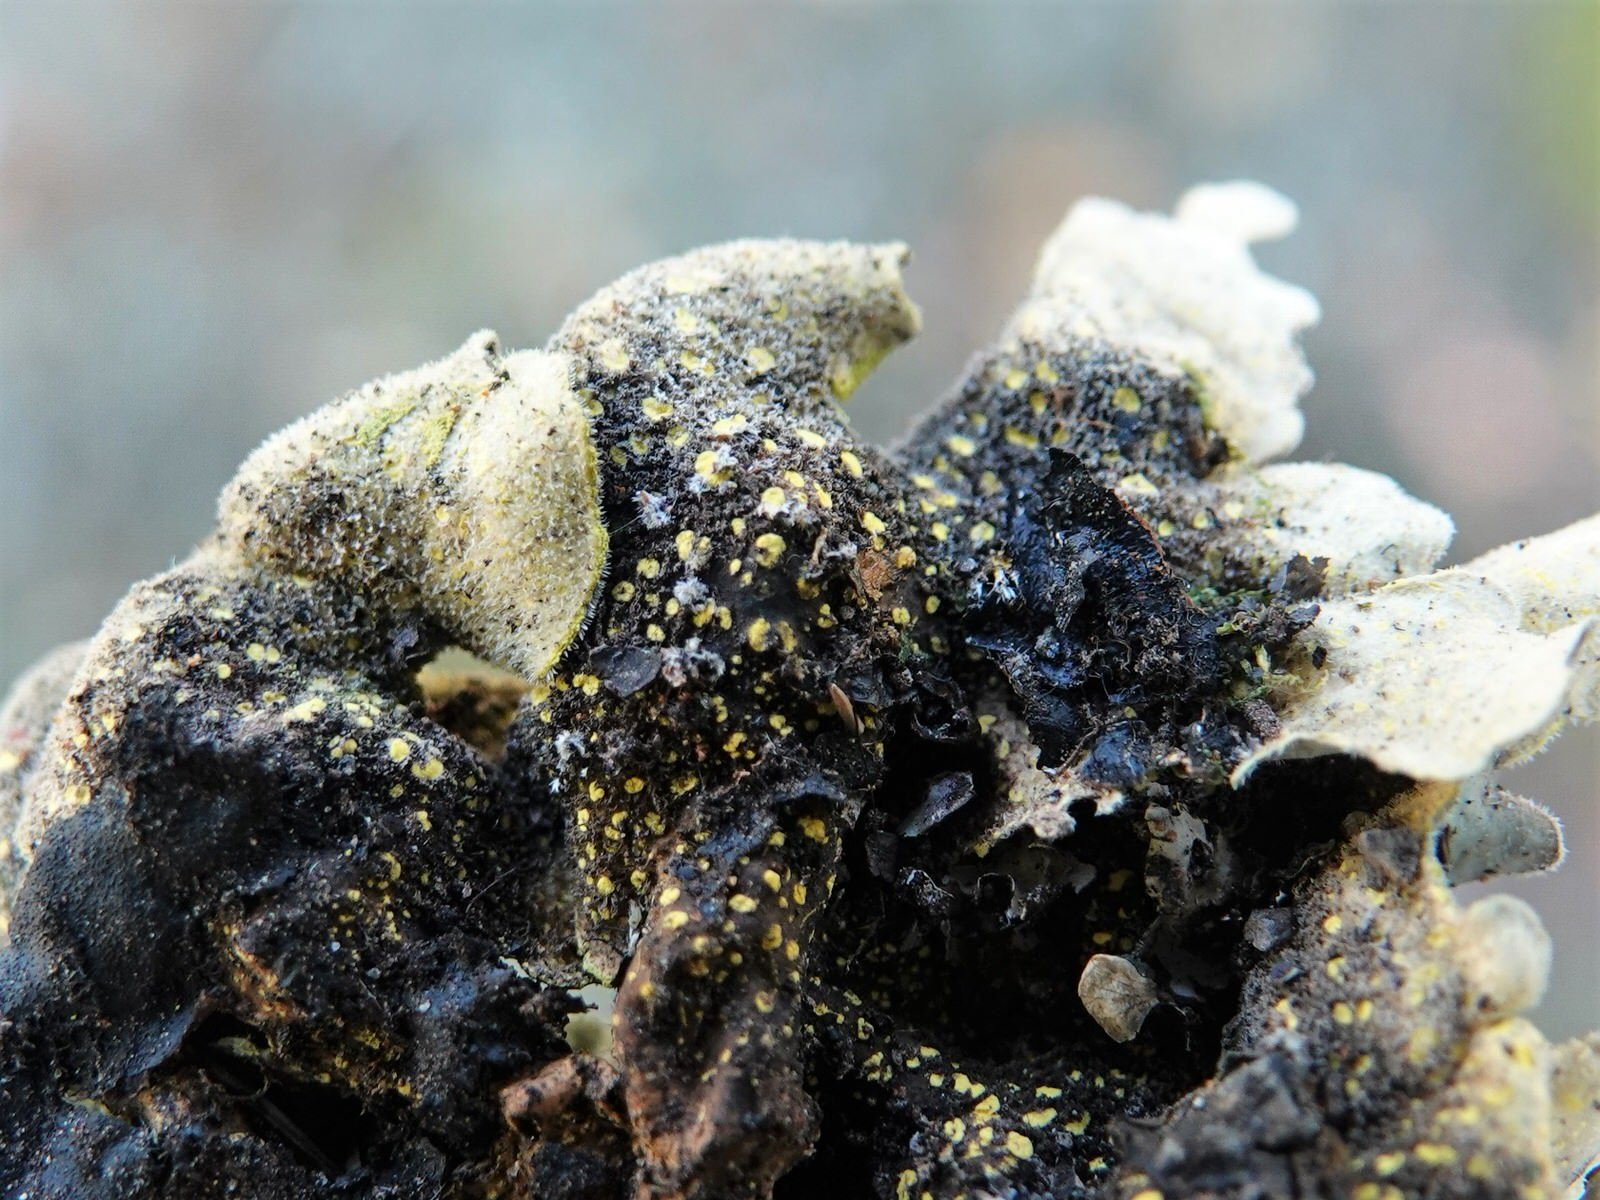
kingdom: Fungi
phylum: Ascomycota
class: Lecanoromycetes
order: Peltigerales
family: Lobariaceae
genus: Pseudocyphellaria
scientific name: Pseudocyphellaria aurata
